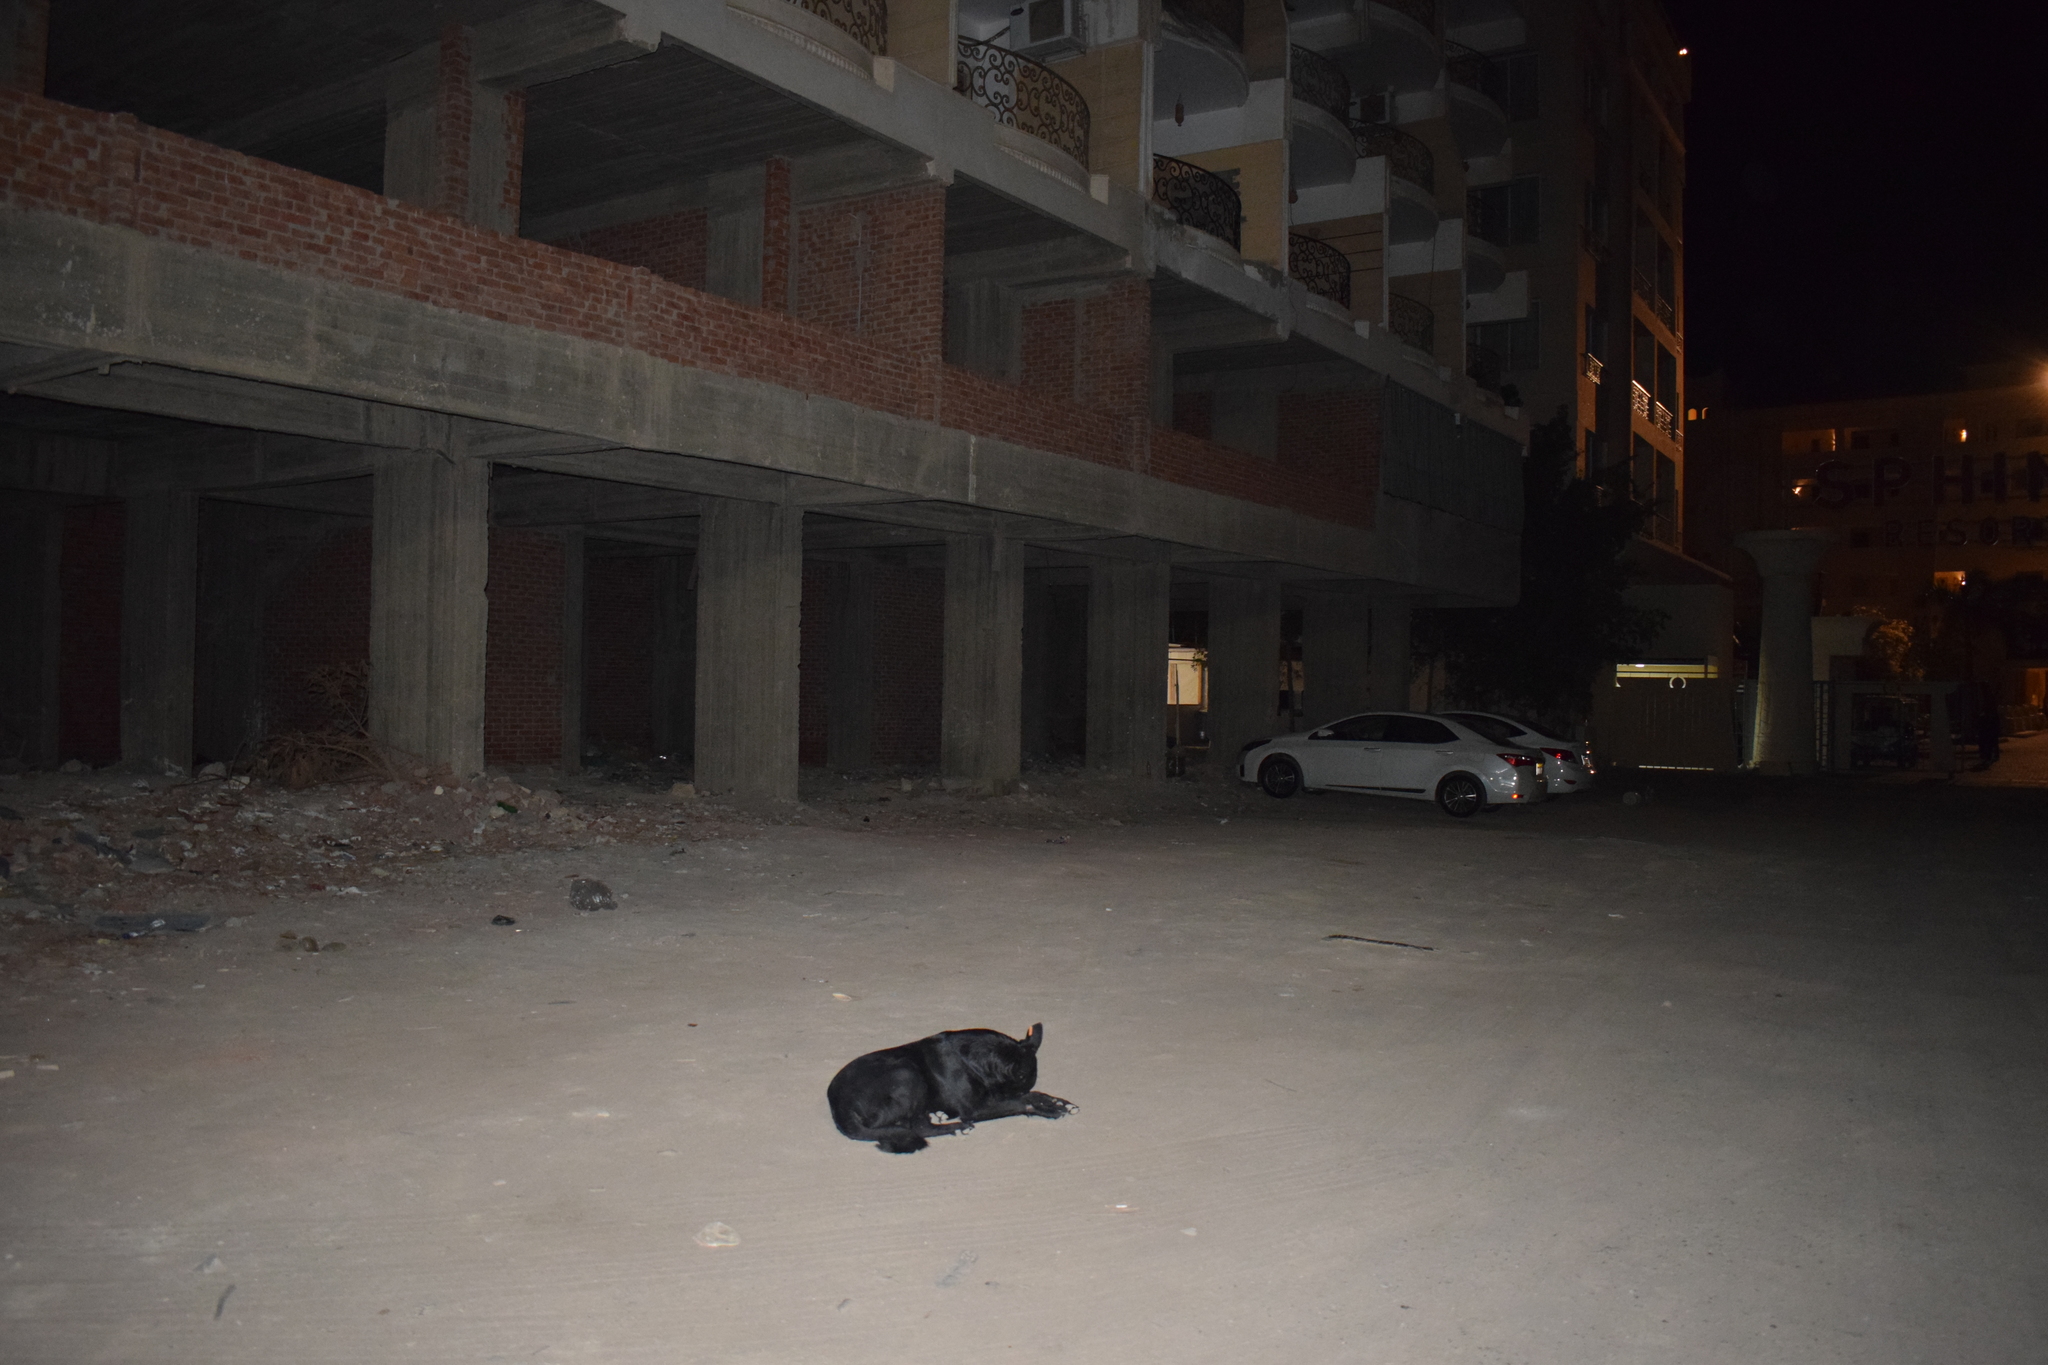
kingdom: Animalia
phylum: Chordata
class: Mammalia
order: Carnivora
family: Canidae
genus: Canis
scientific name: Canis lupus
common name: Gray wolf
